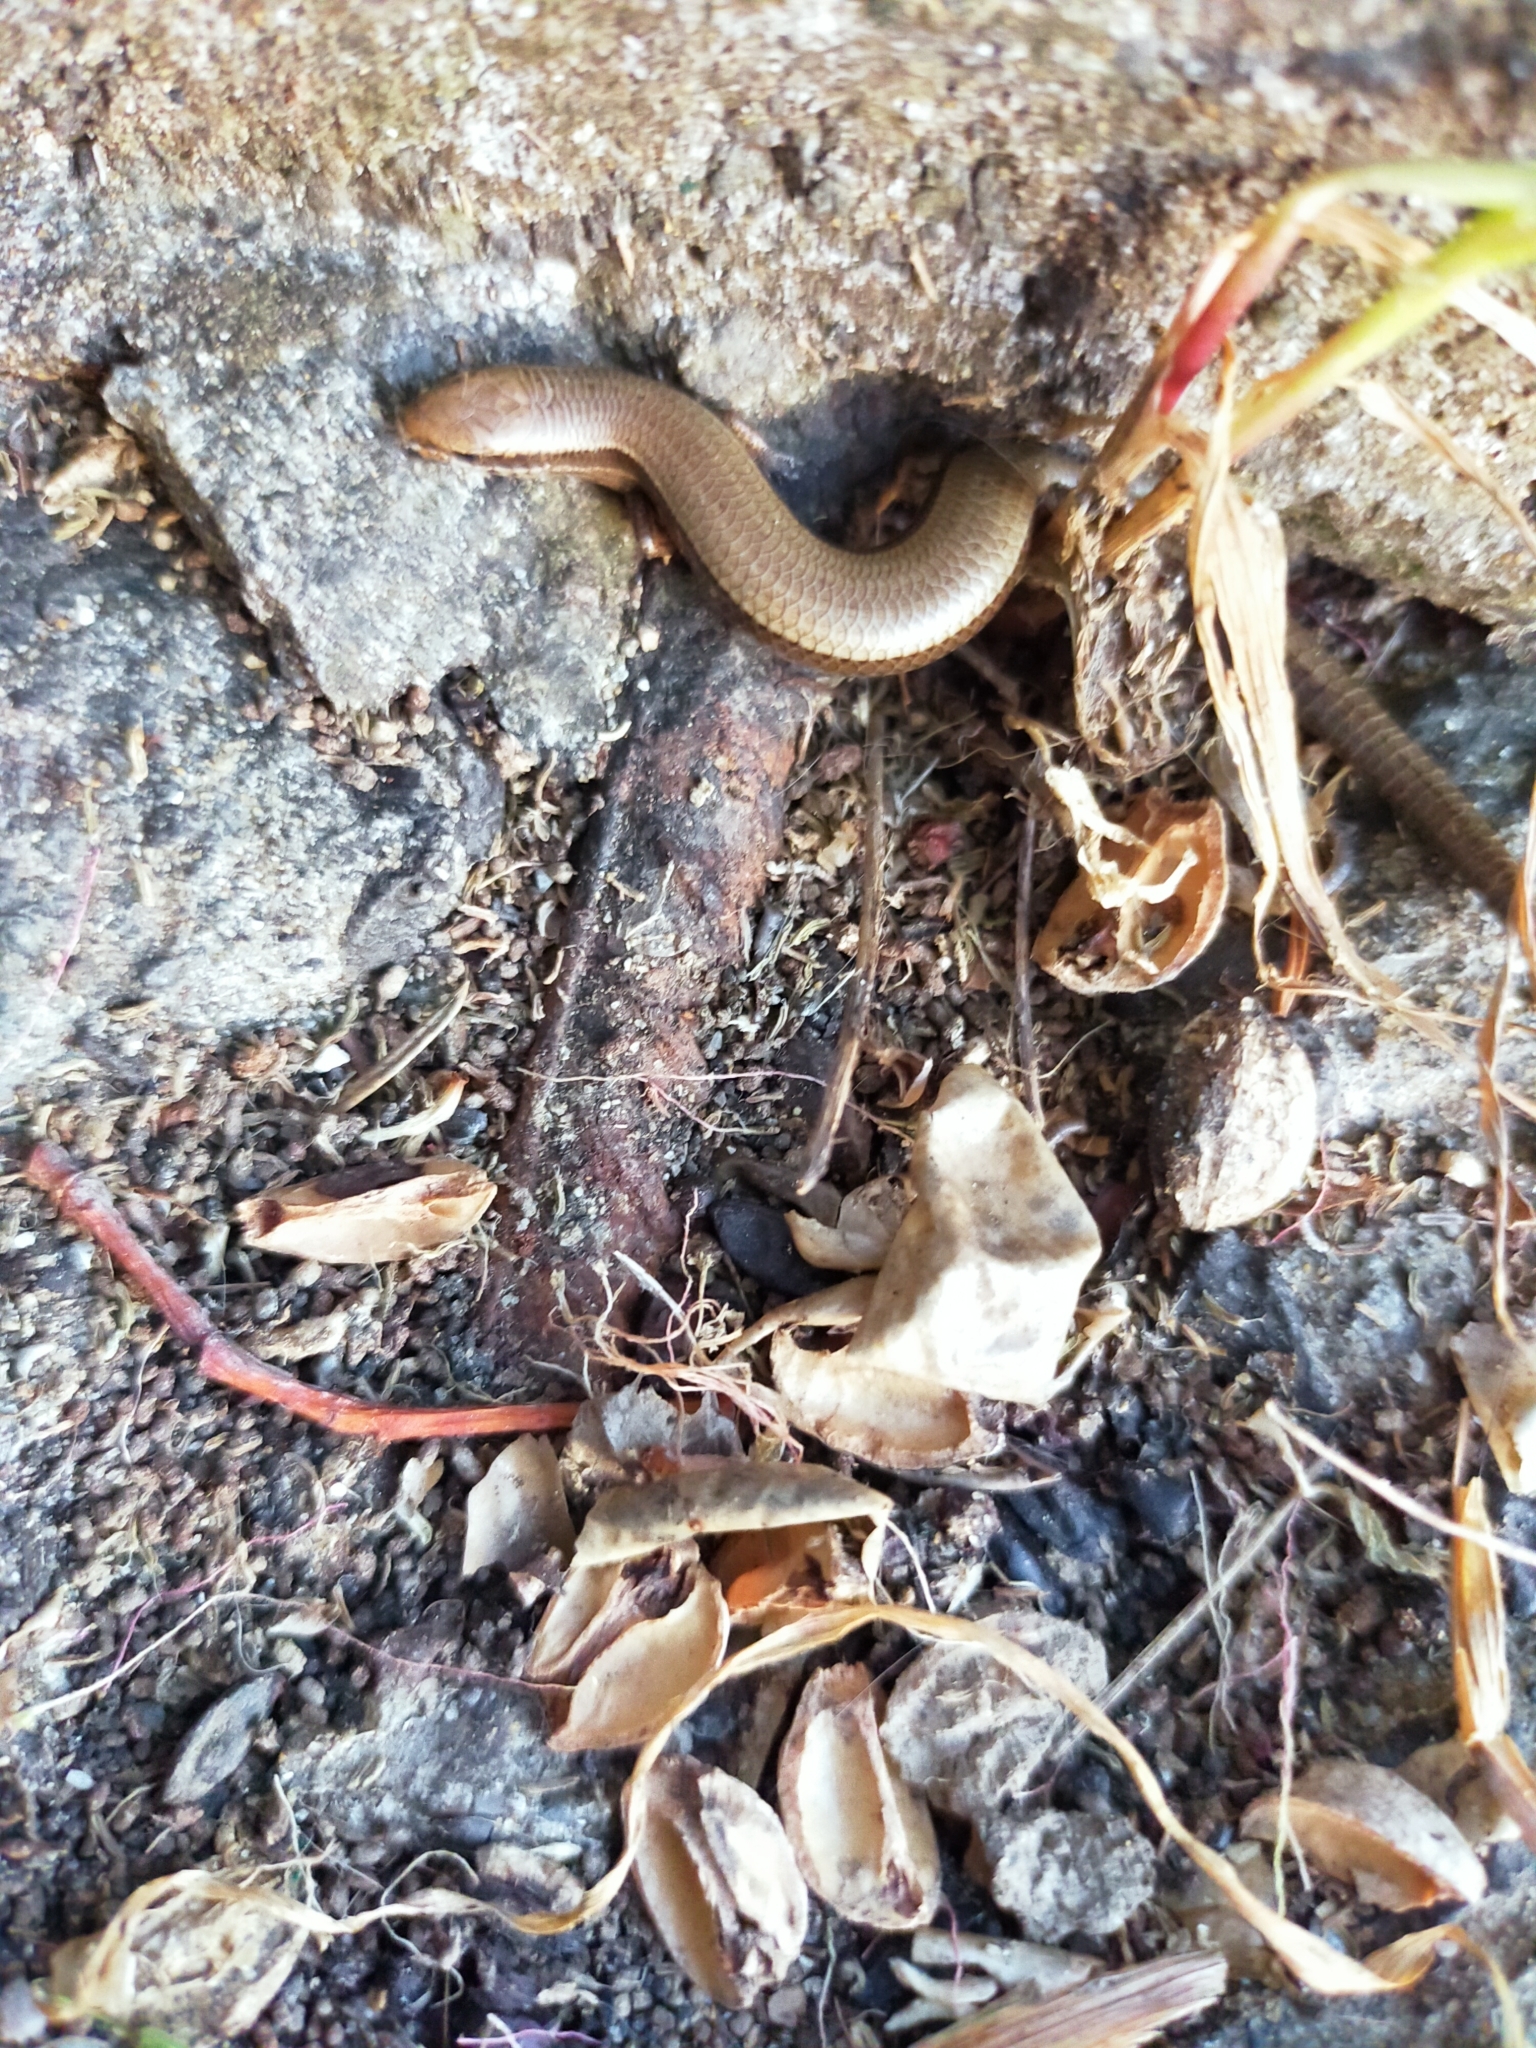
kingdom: Animalia
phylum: Chordata
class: Squamata
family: Scincidae
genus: Ablepharus
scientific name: Ablepharus kitaibelii
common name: Juniper skink
